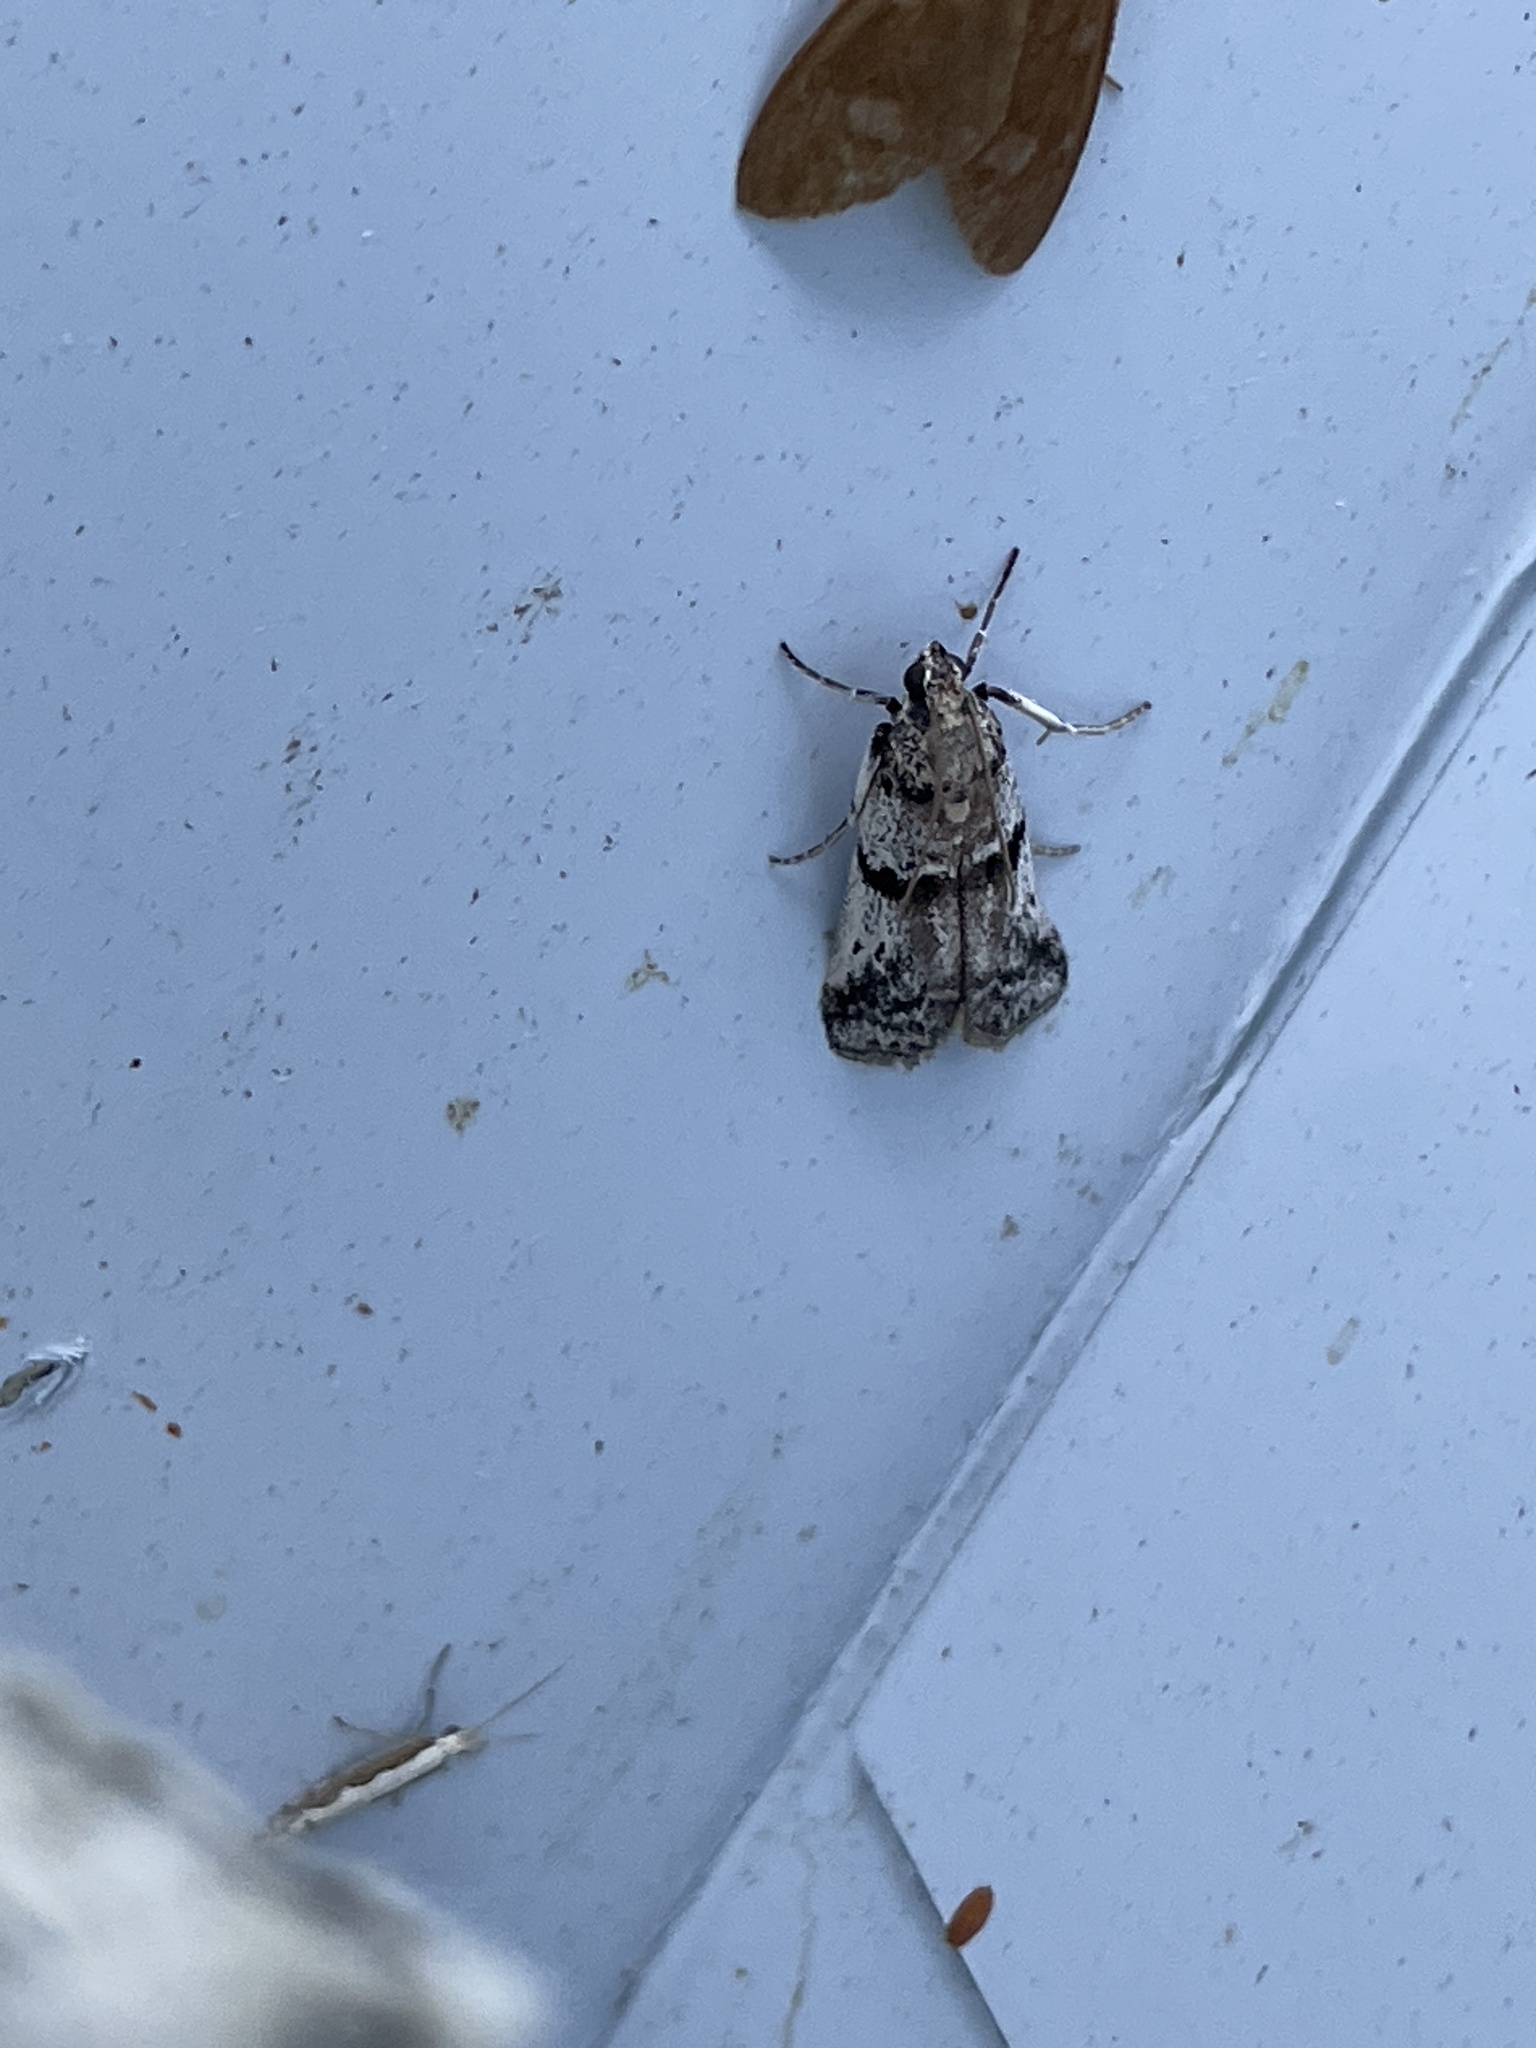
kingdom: Animalia
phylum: Arthropoda
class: Insecta
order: Lepidoptera
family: Pyralidae
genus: Ephestia
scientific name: Ephestia welseriella
